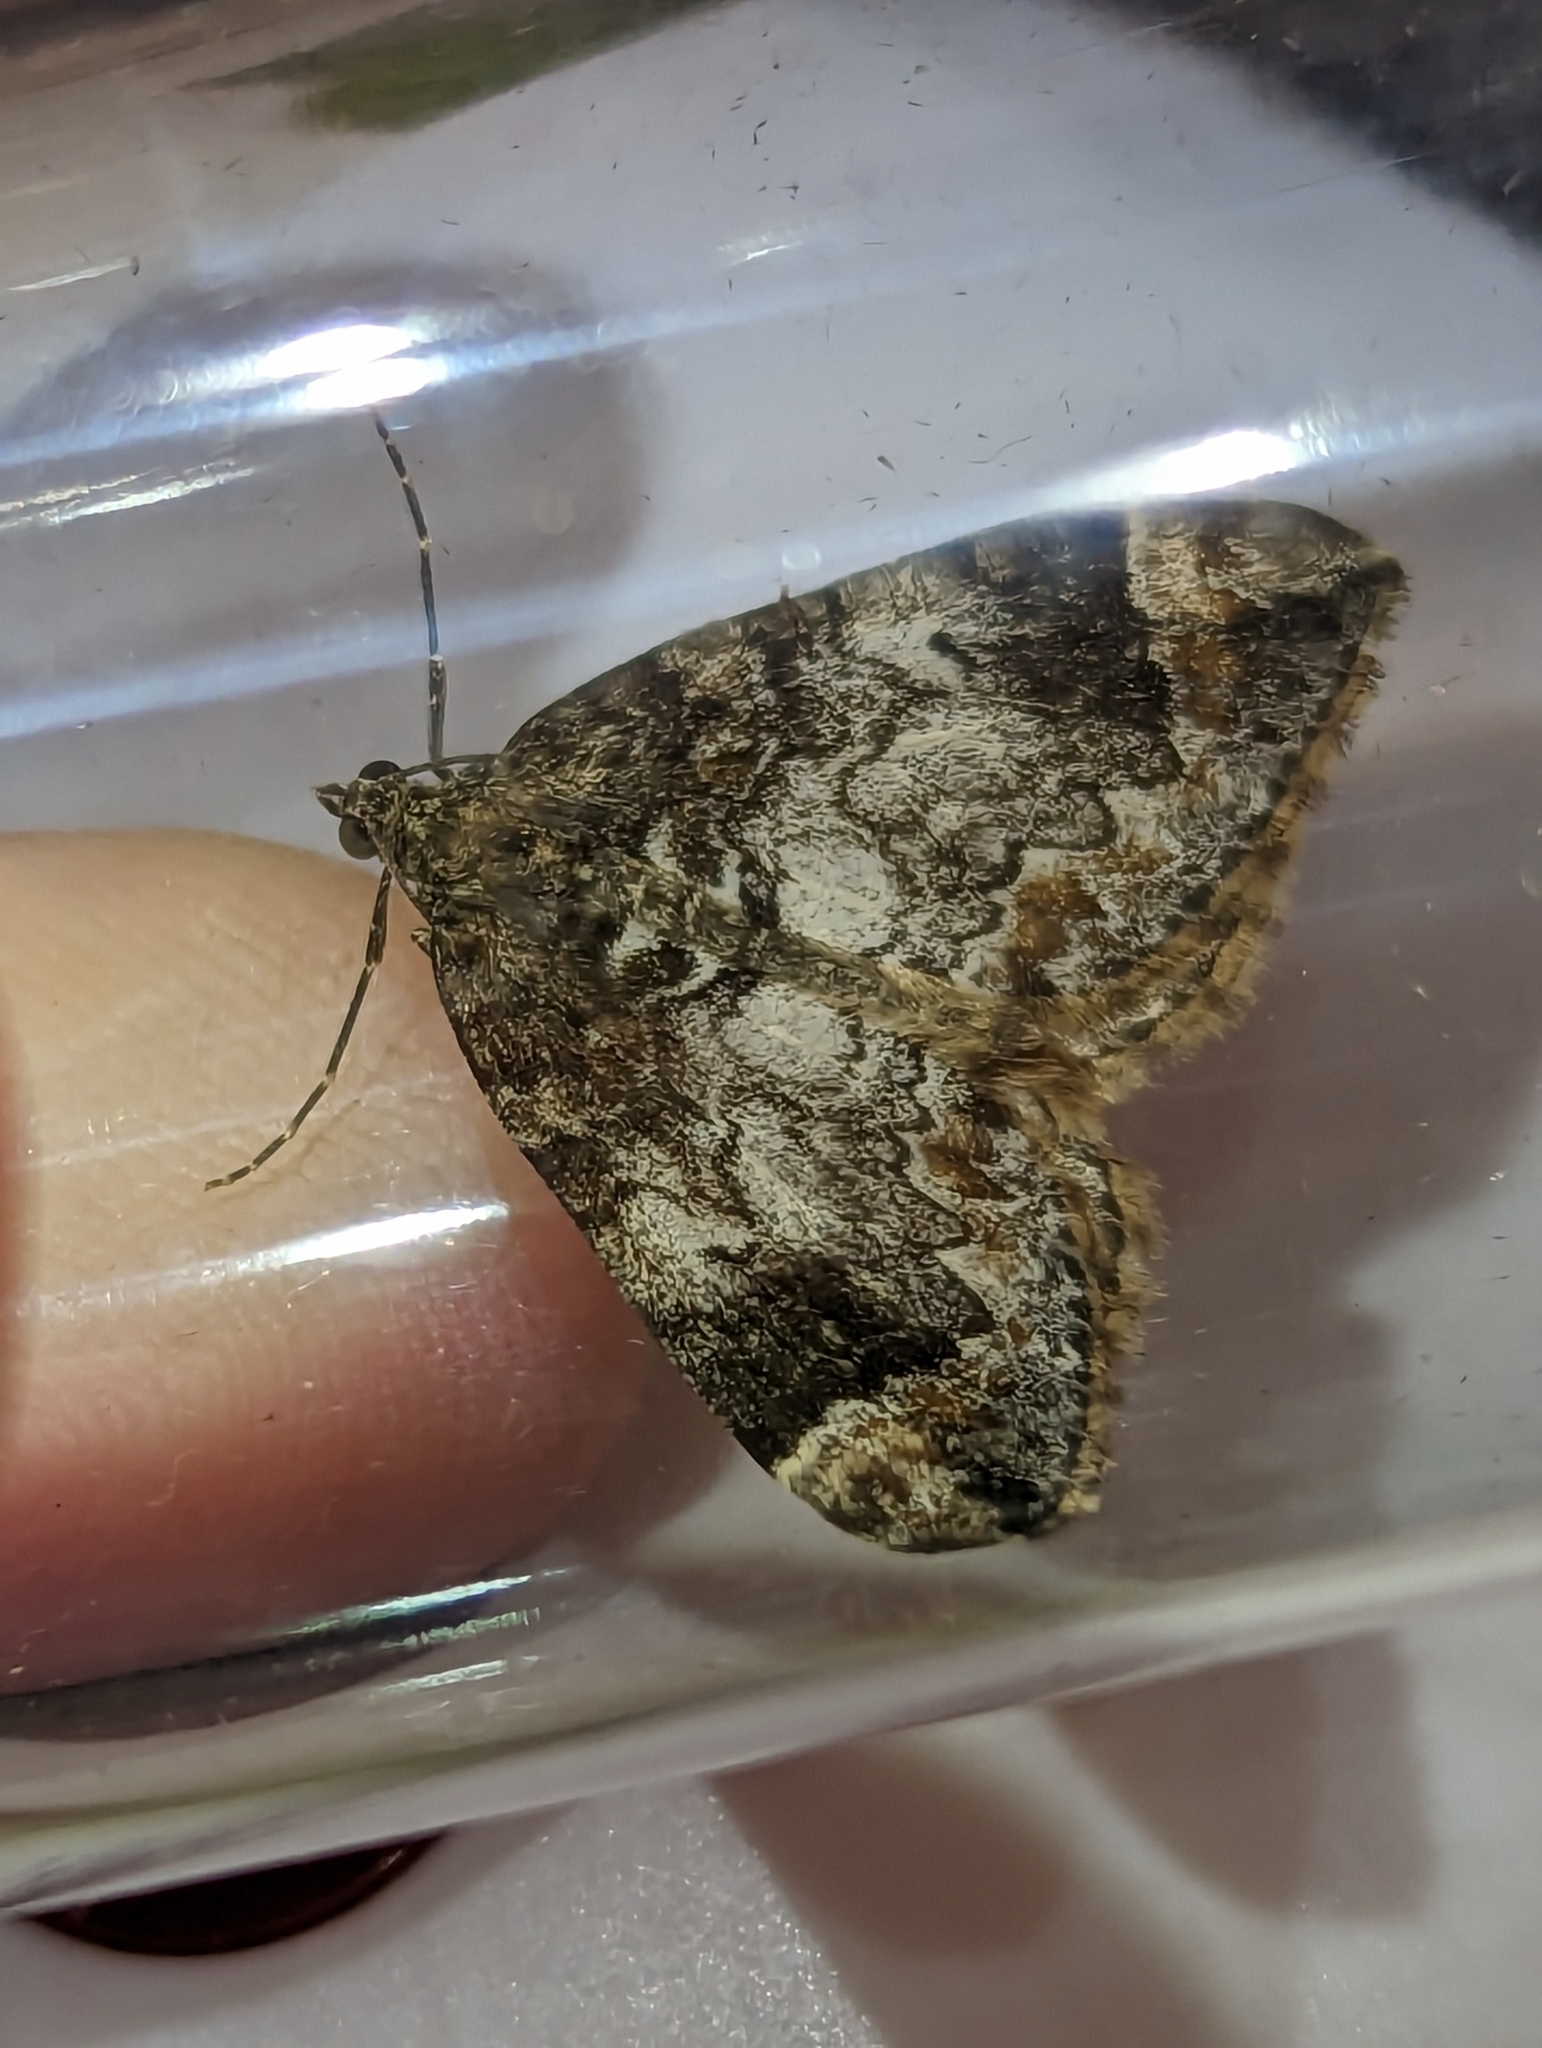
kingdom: Animalia
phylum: Arthropoda
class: Insecta
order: Lepidoptera
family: Geometridae
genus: Dysstroma
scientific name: Dysstroma truncata
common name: Common marbled carpet
